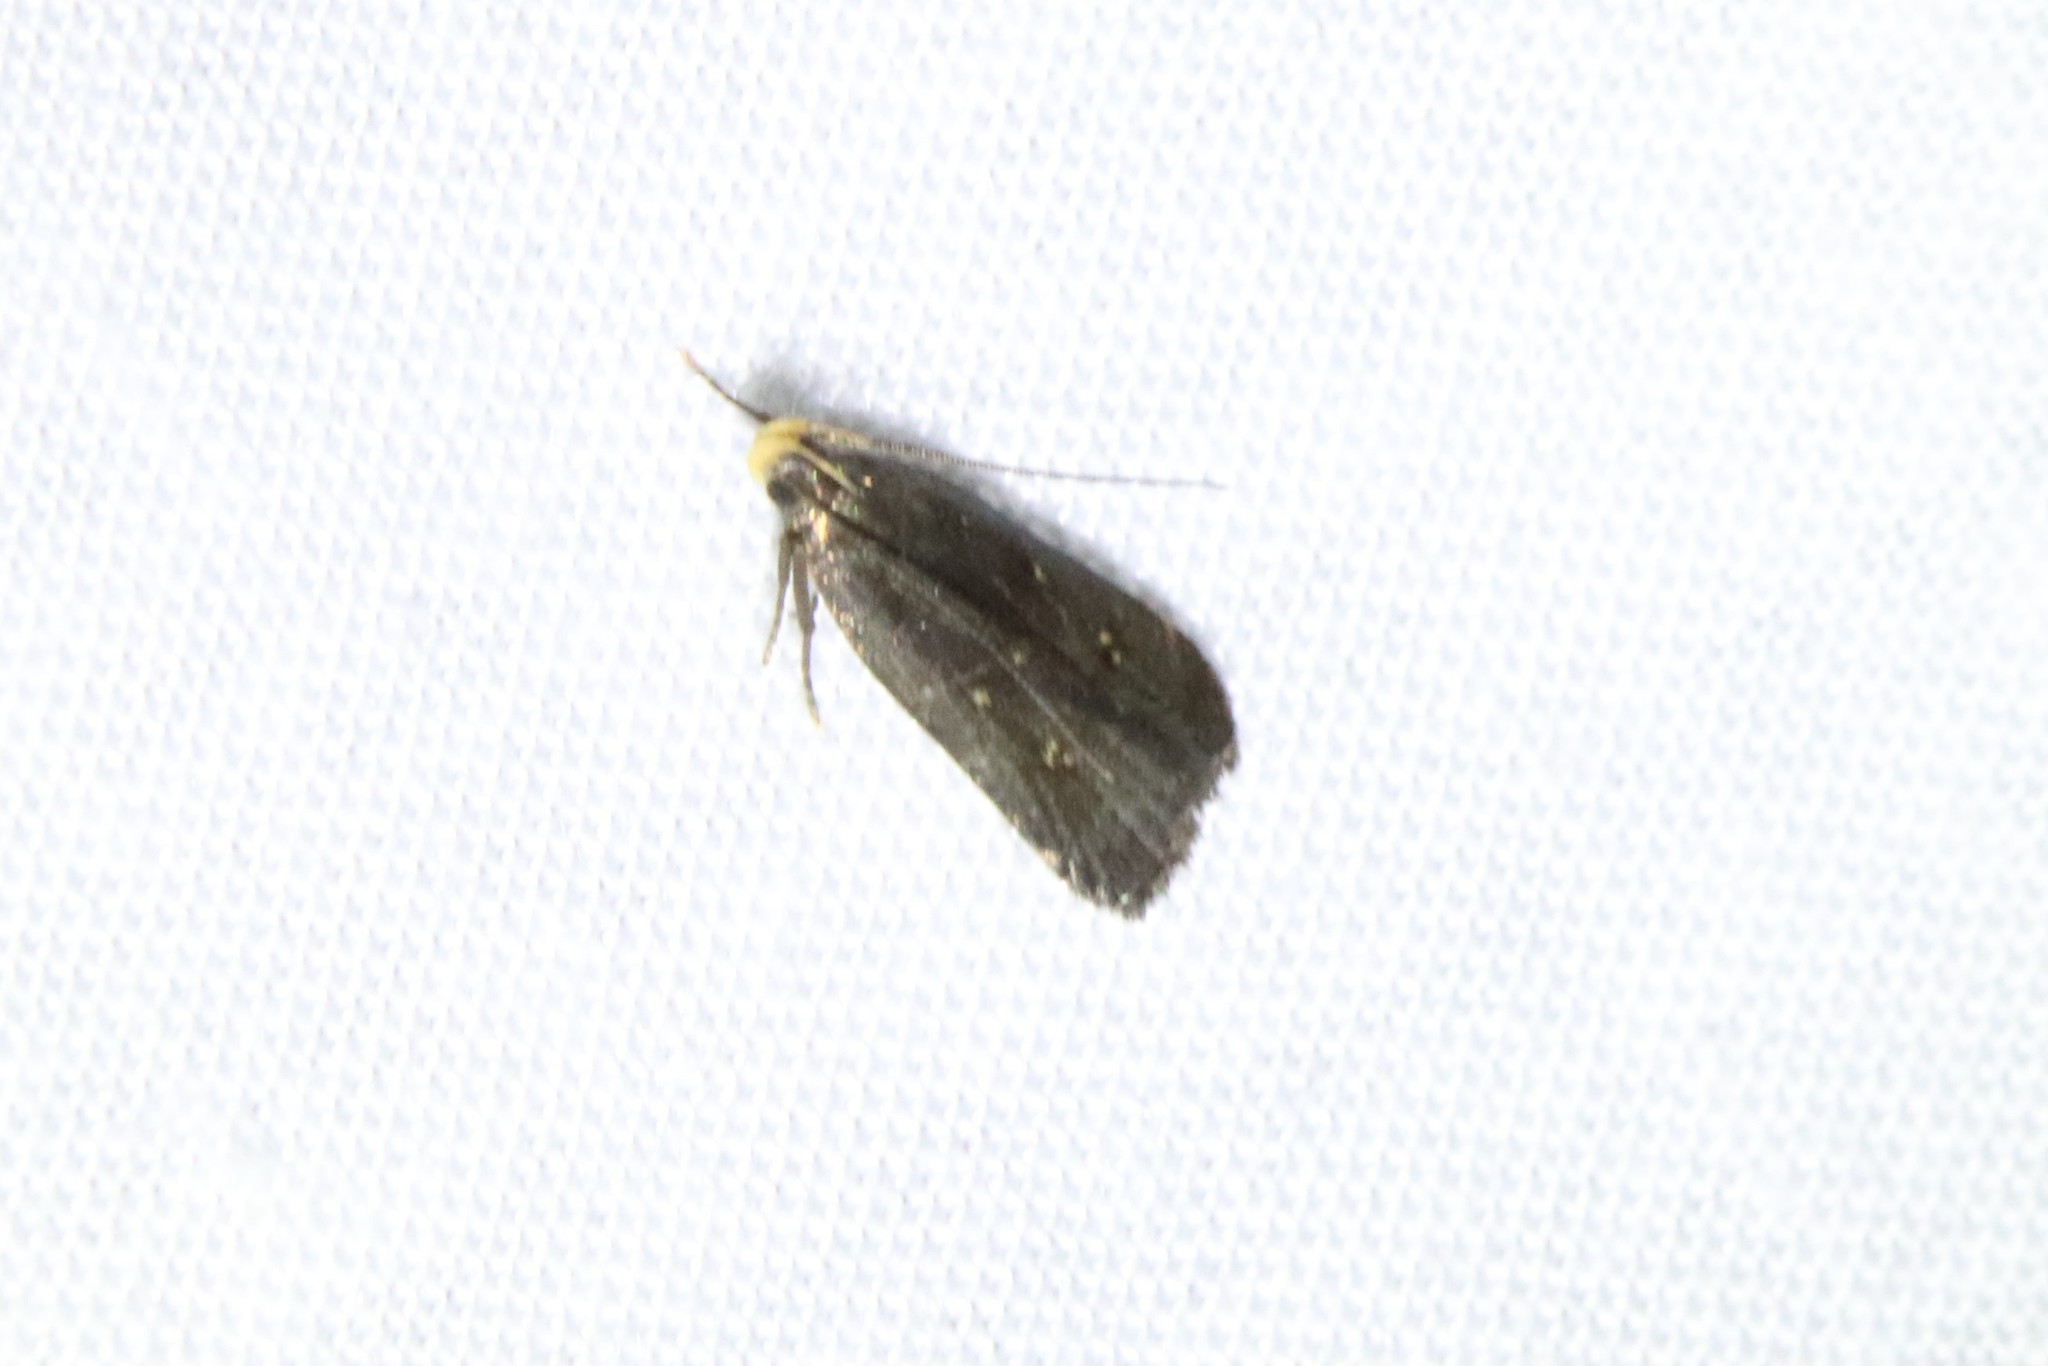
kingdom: Animalia
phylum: Arthropoda
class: Insecta
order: Lepidoptera
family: Gelechiidae
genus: Dichomeris
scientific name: Dichomeris juncidella
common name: Orange-dotted dichomeris moth
